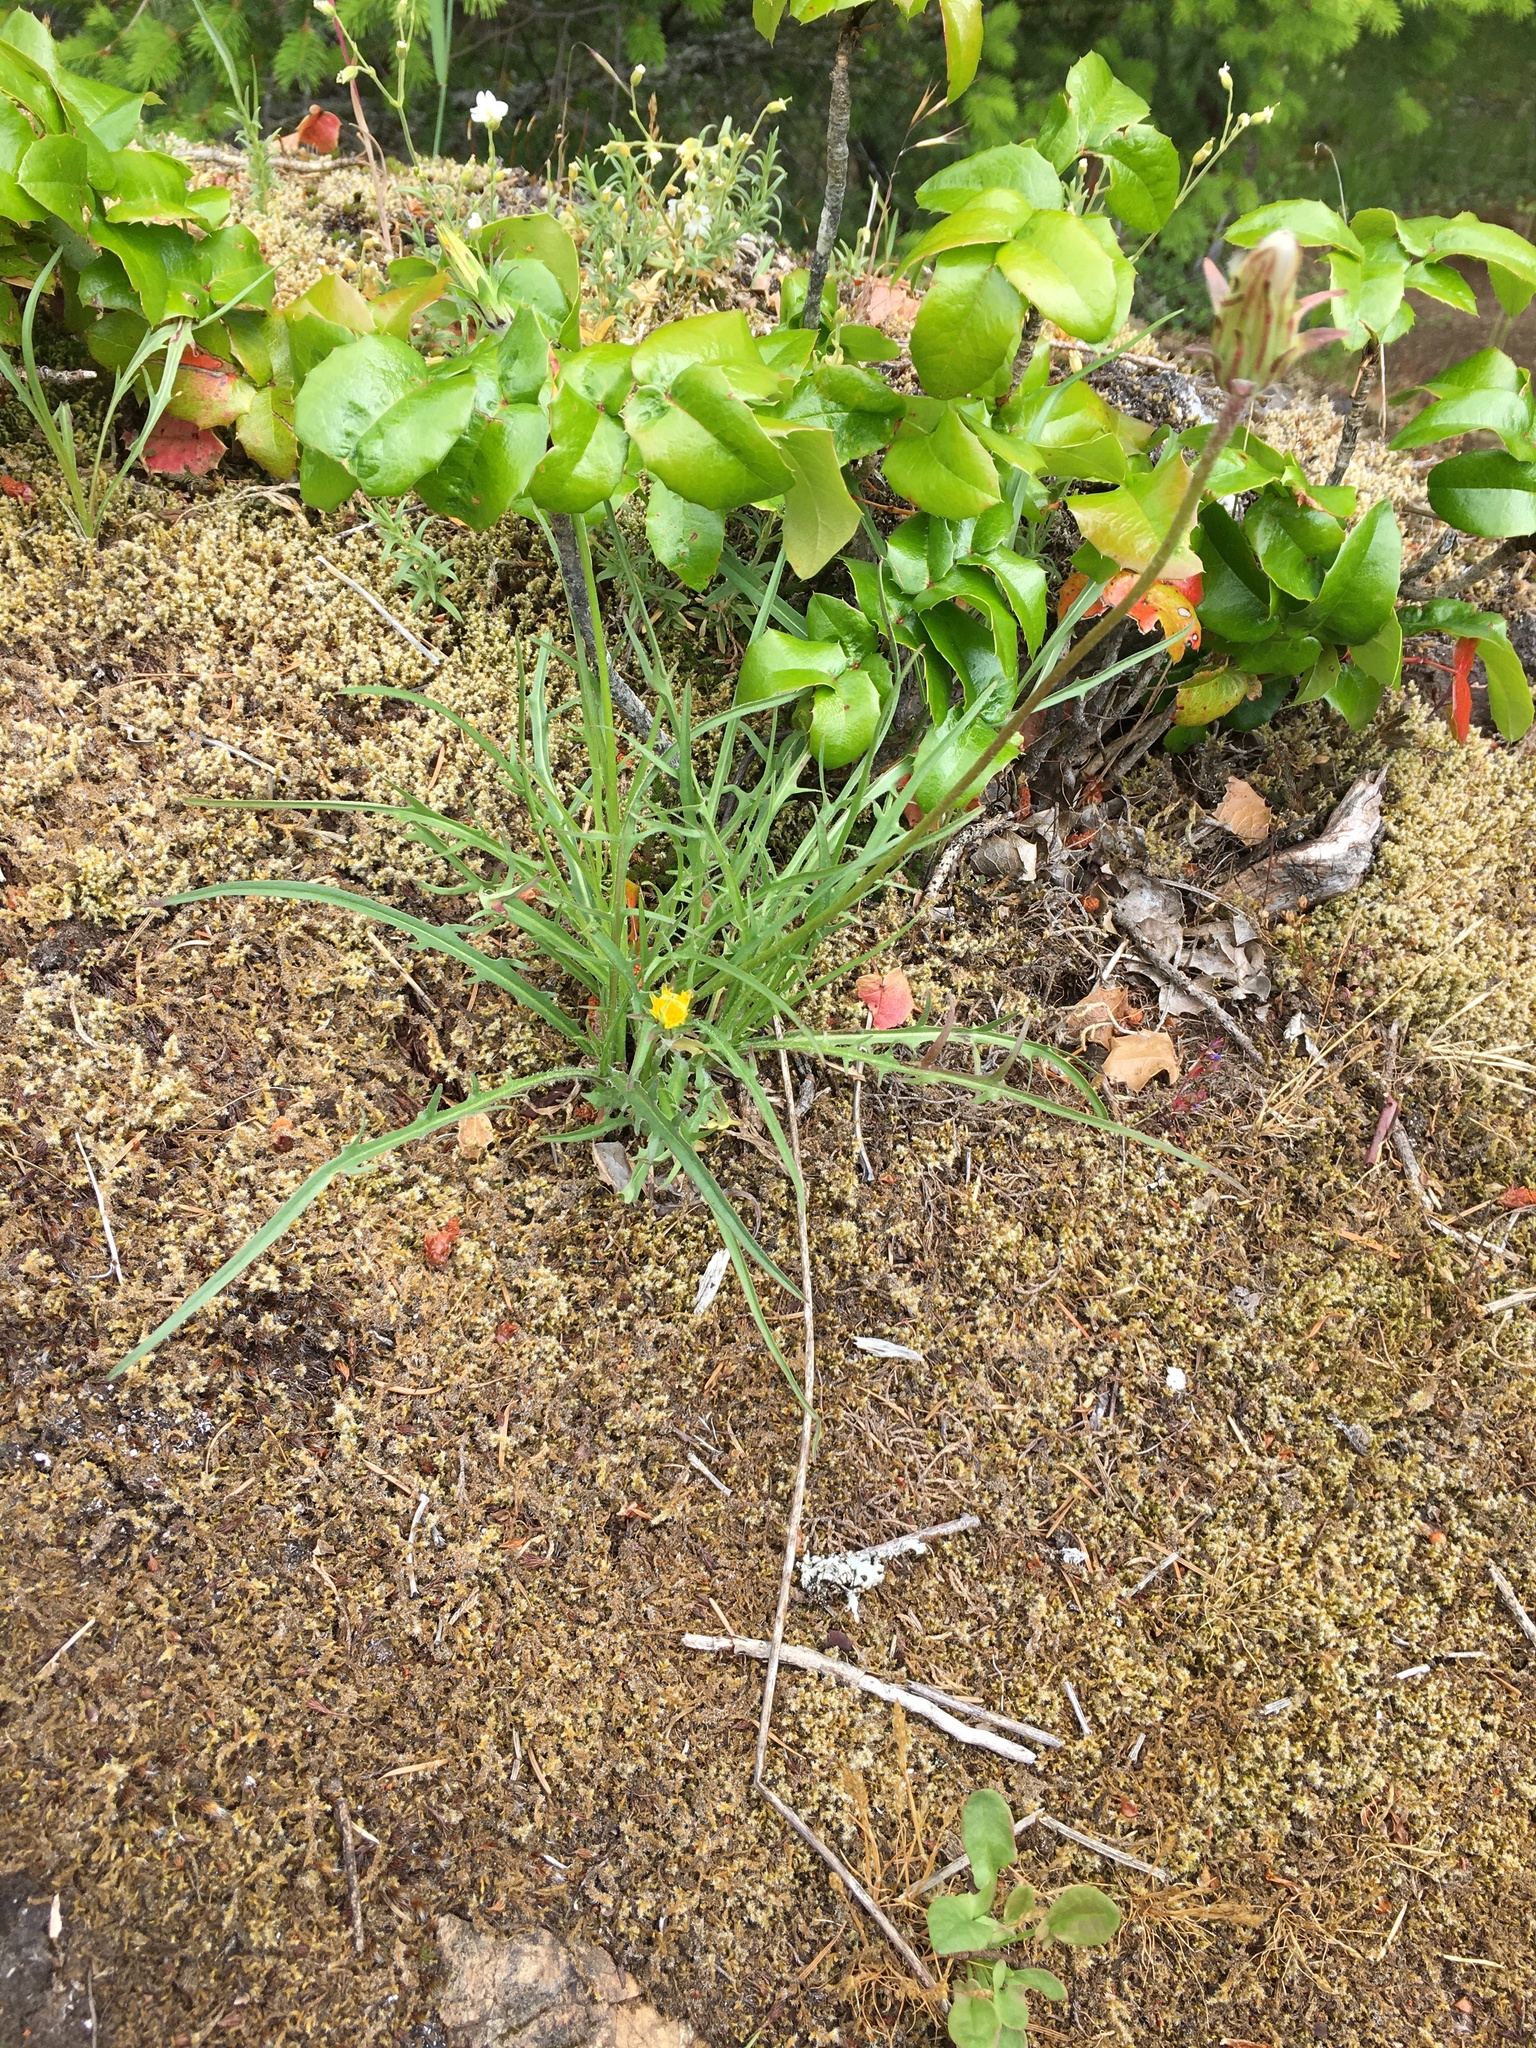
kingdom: Plantae
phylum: Tracheophyta
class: Magnoliopsida
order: Asterales
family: Asteraceae
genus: Agoseris
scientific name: Agoseris grandiflora
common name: Grassland agoseris
